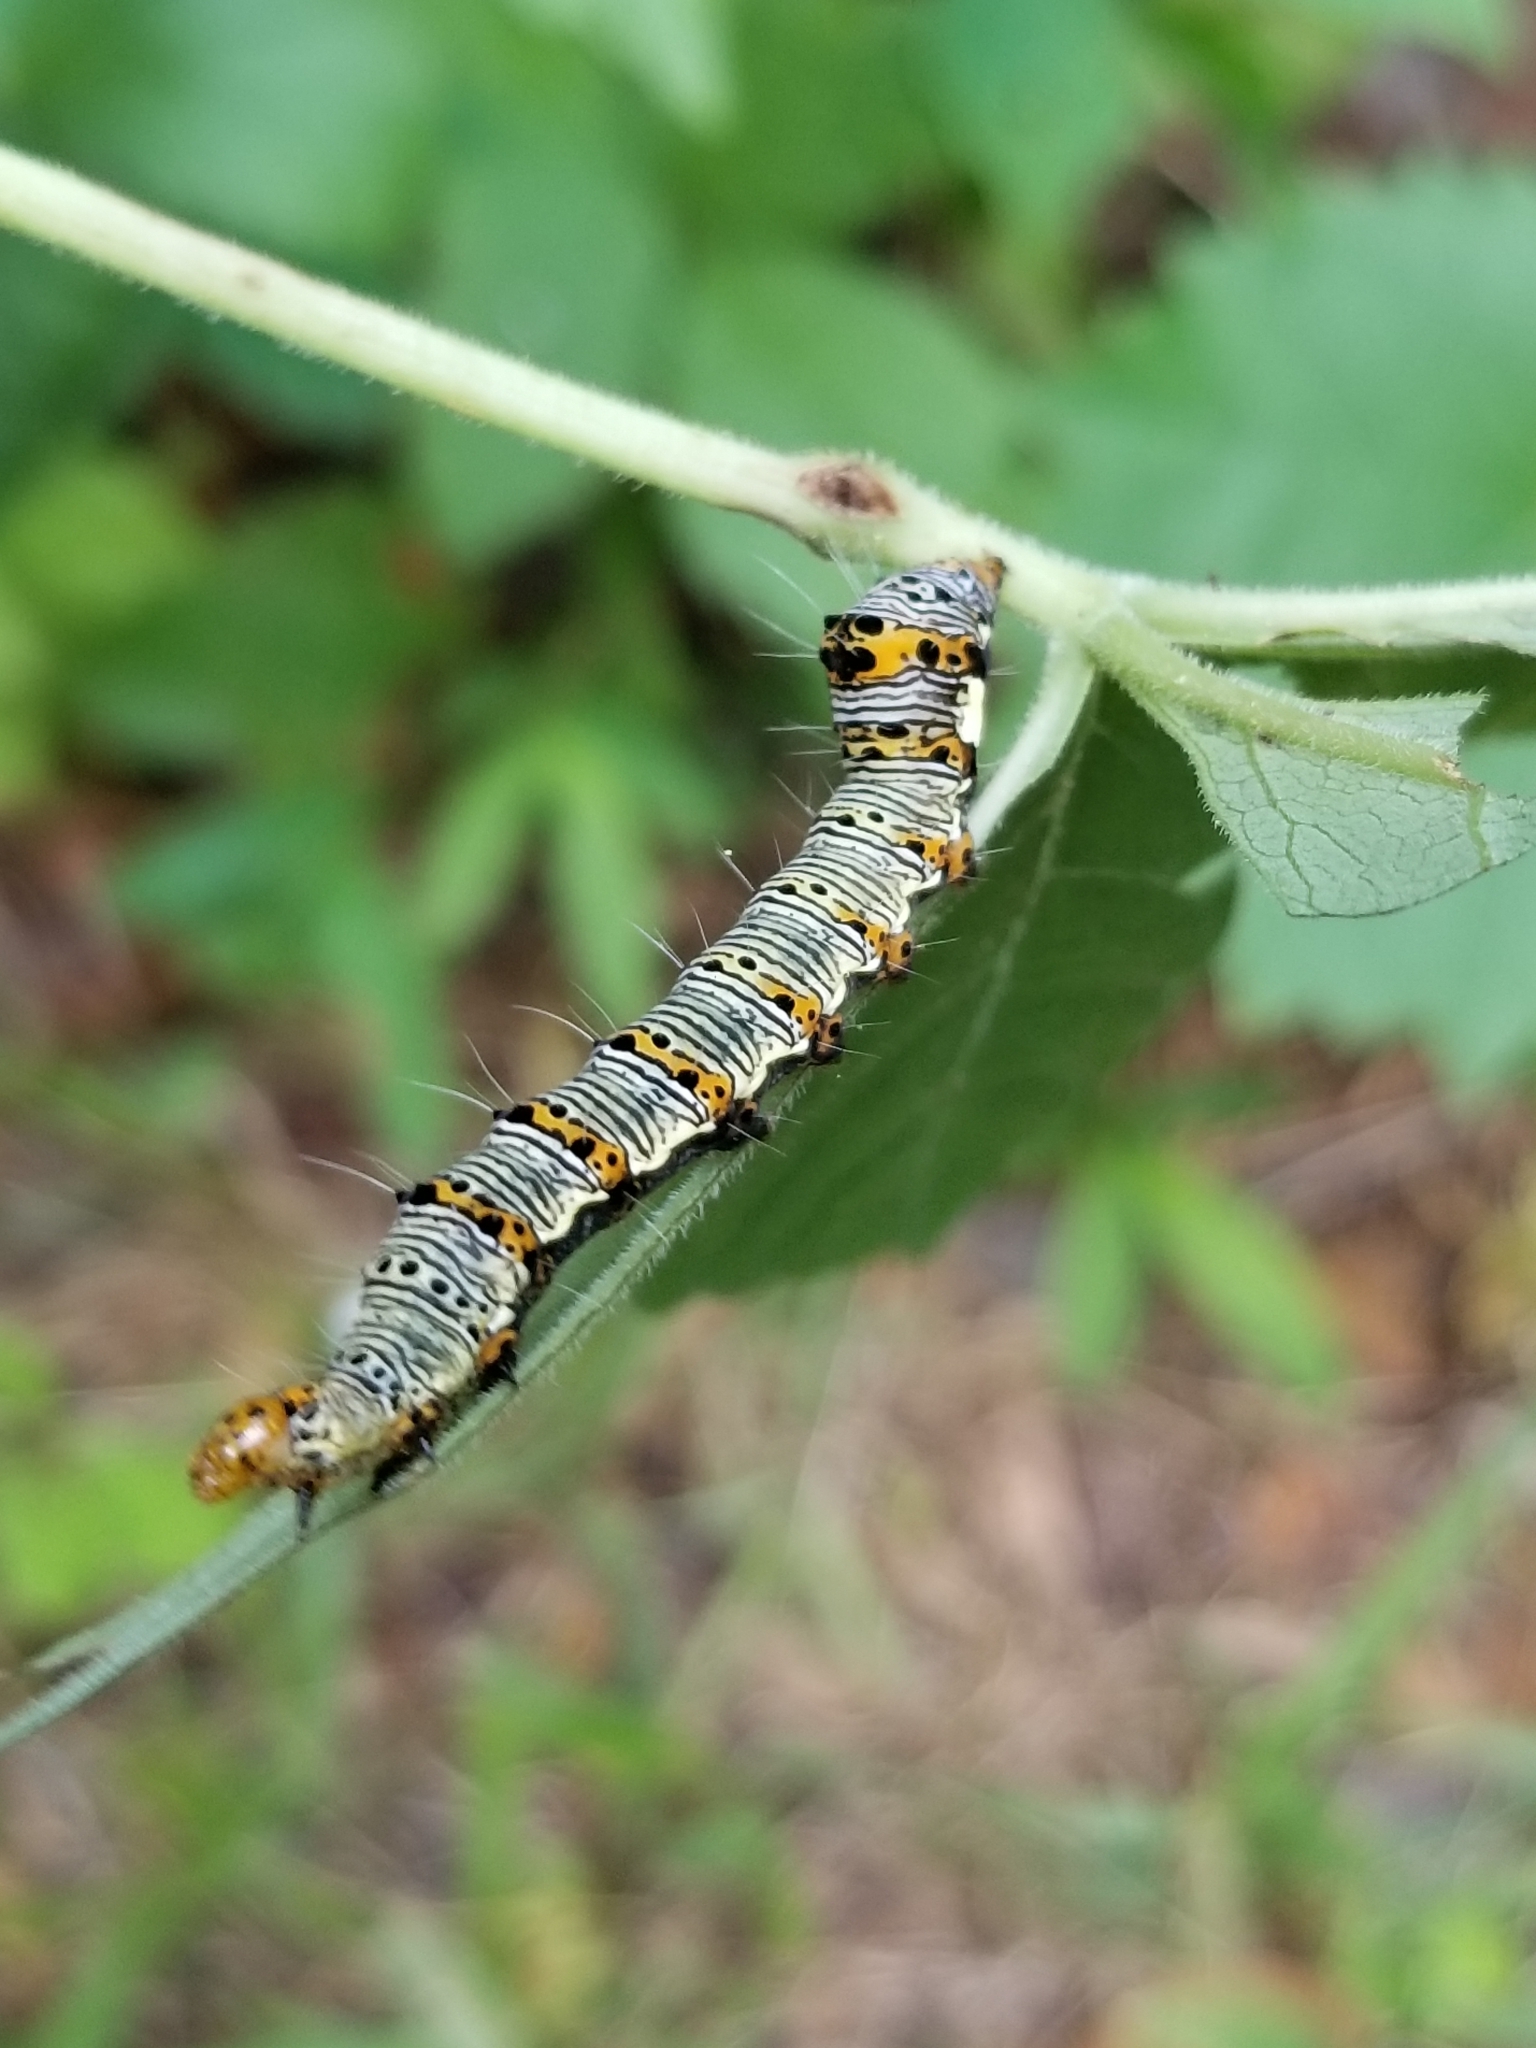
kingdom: Animalia
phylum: Arthropoda
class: Insecta
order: Lepidoptera
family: Noctuidae
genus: Alypia
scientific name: Alypia octomaculata
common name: Eight-spotted forester
